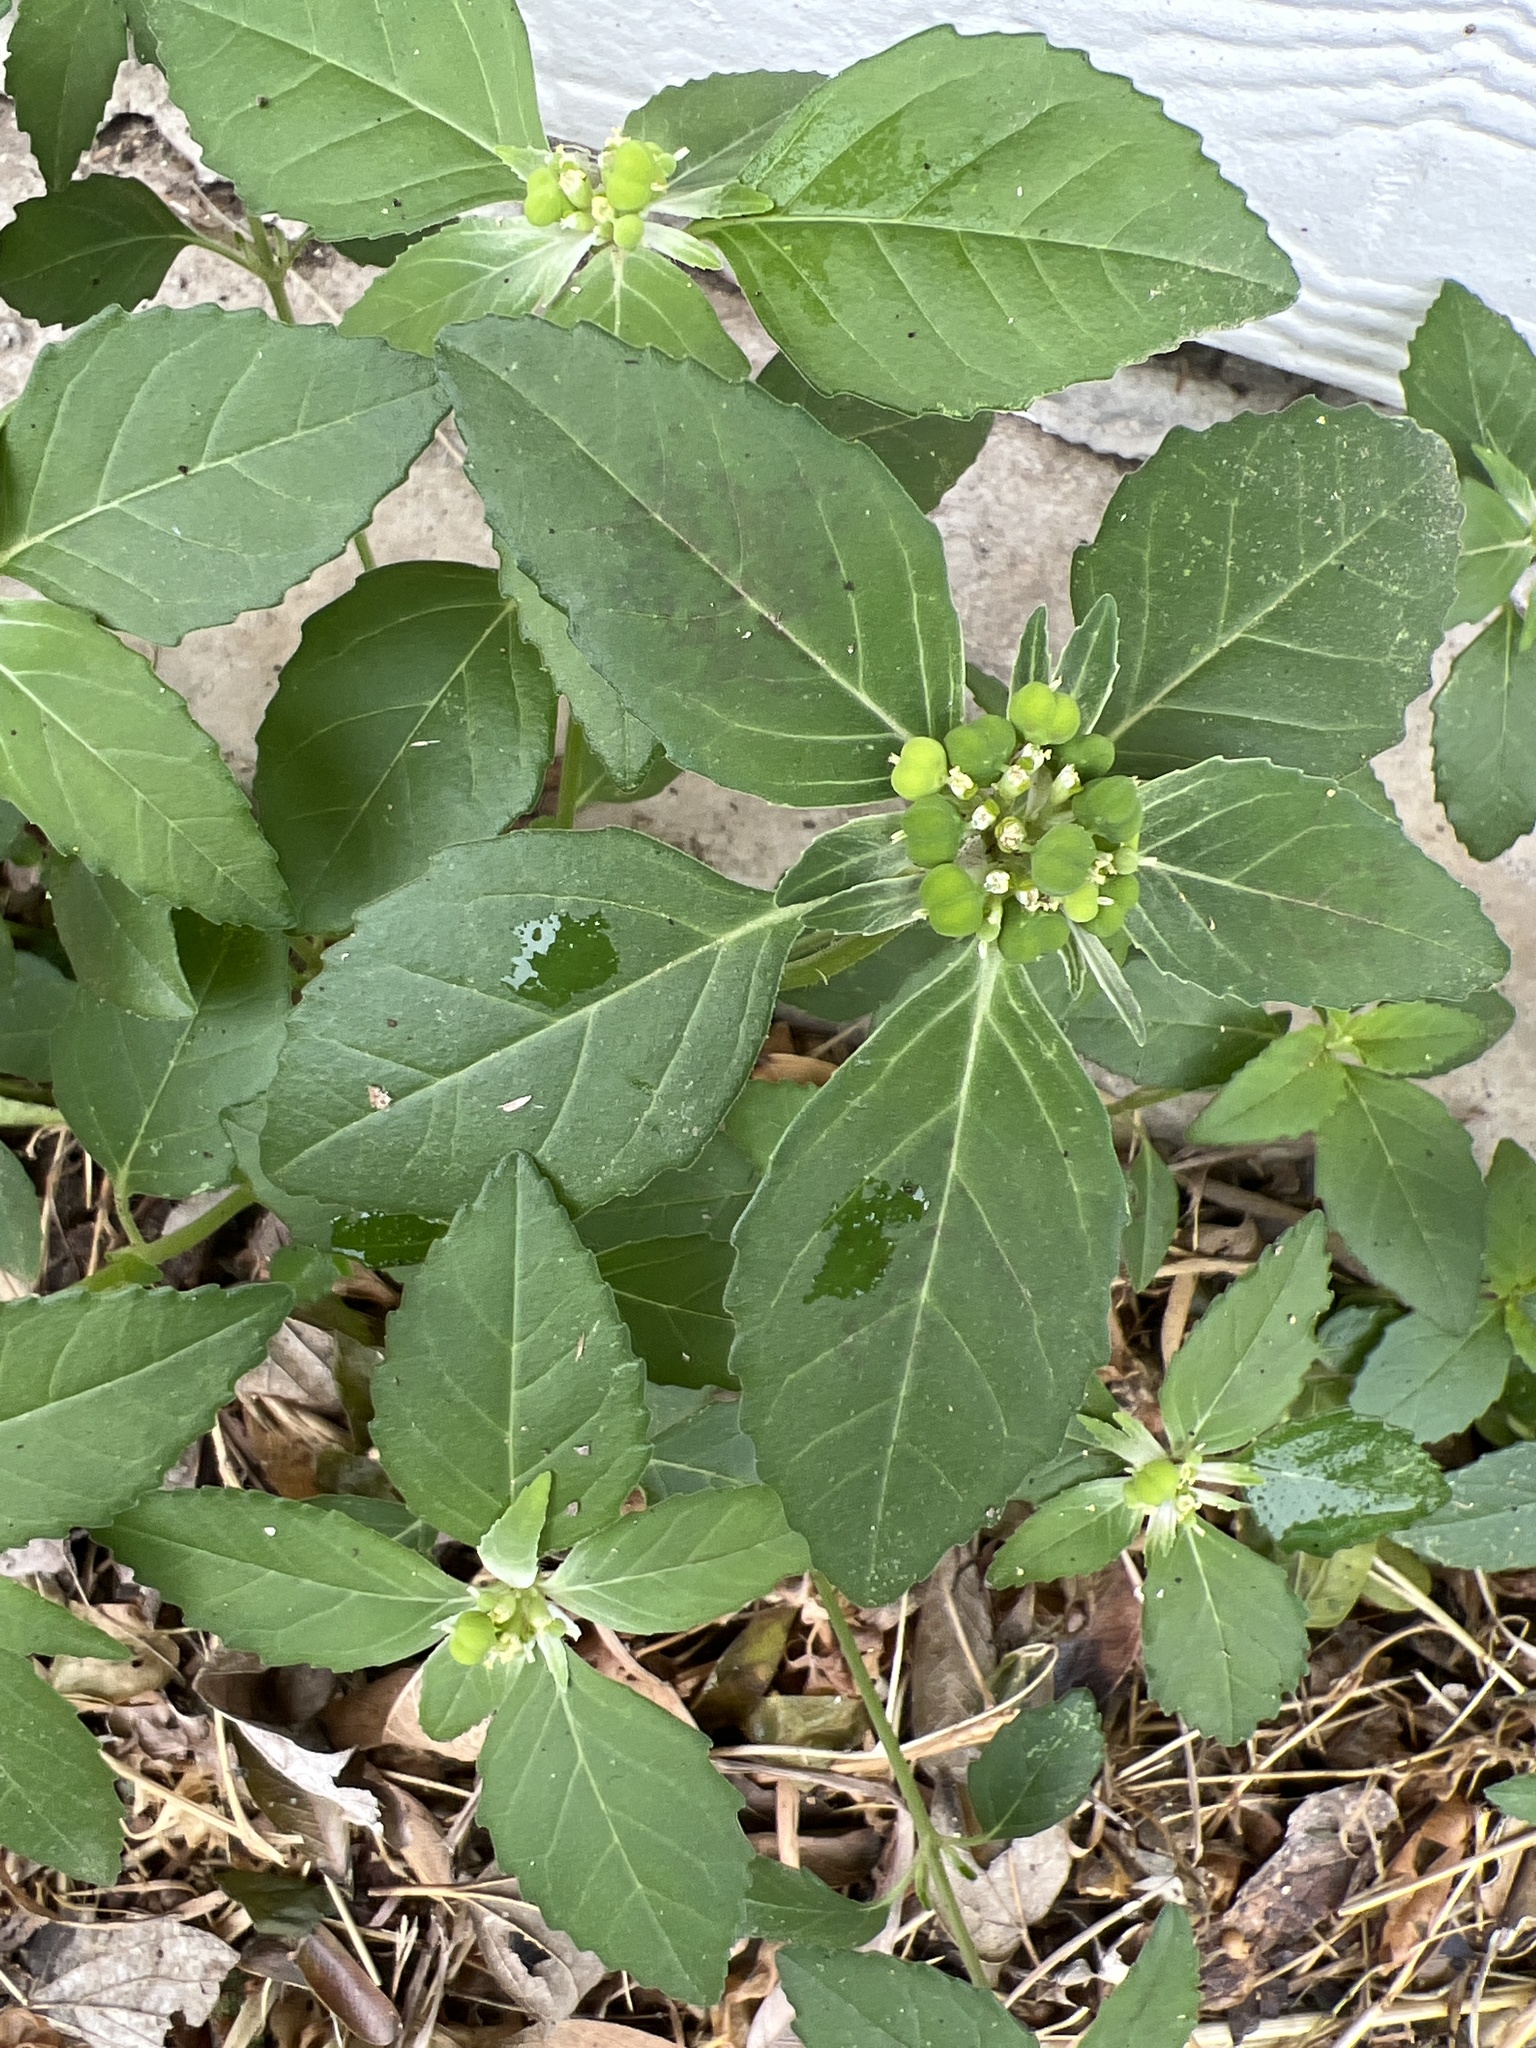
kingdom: Plantae
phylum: Tracheophyta
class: Magnoliopsida
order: Malpighiales
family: Euphorbiaceae
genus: Euphorbia
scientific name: Euphorbia dentata
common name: Dentate spurge
